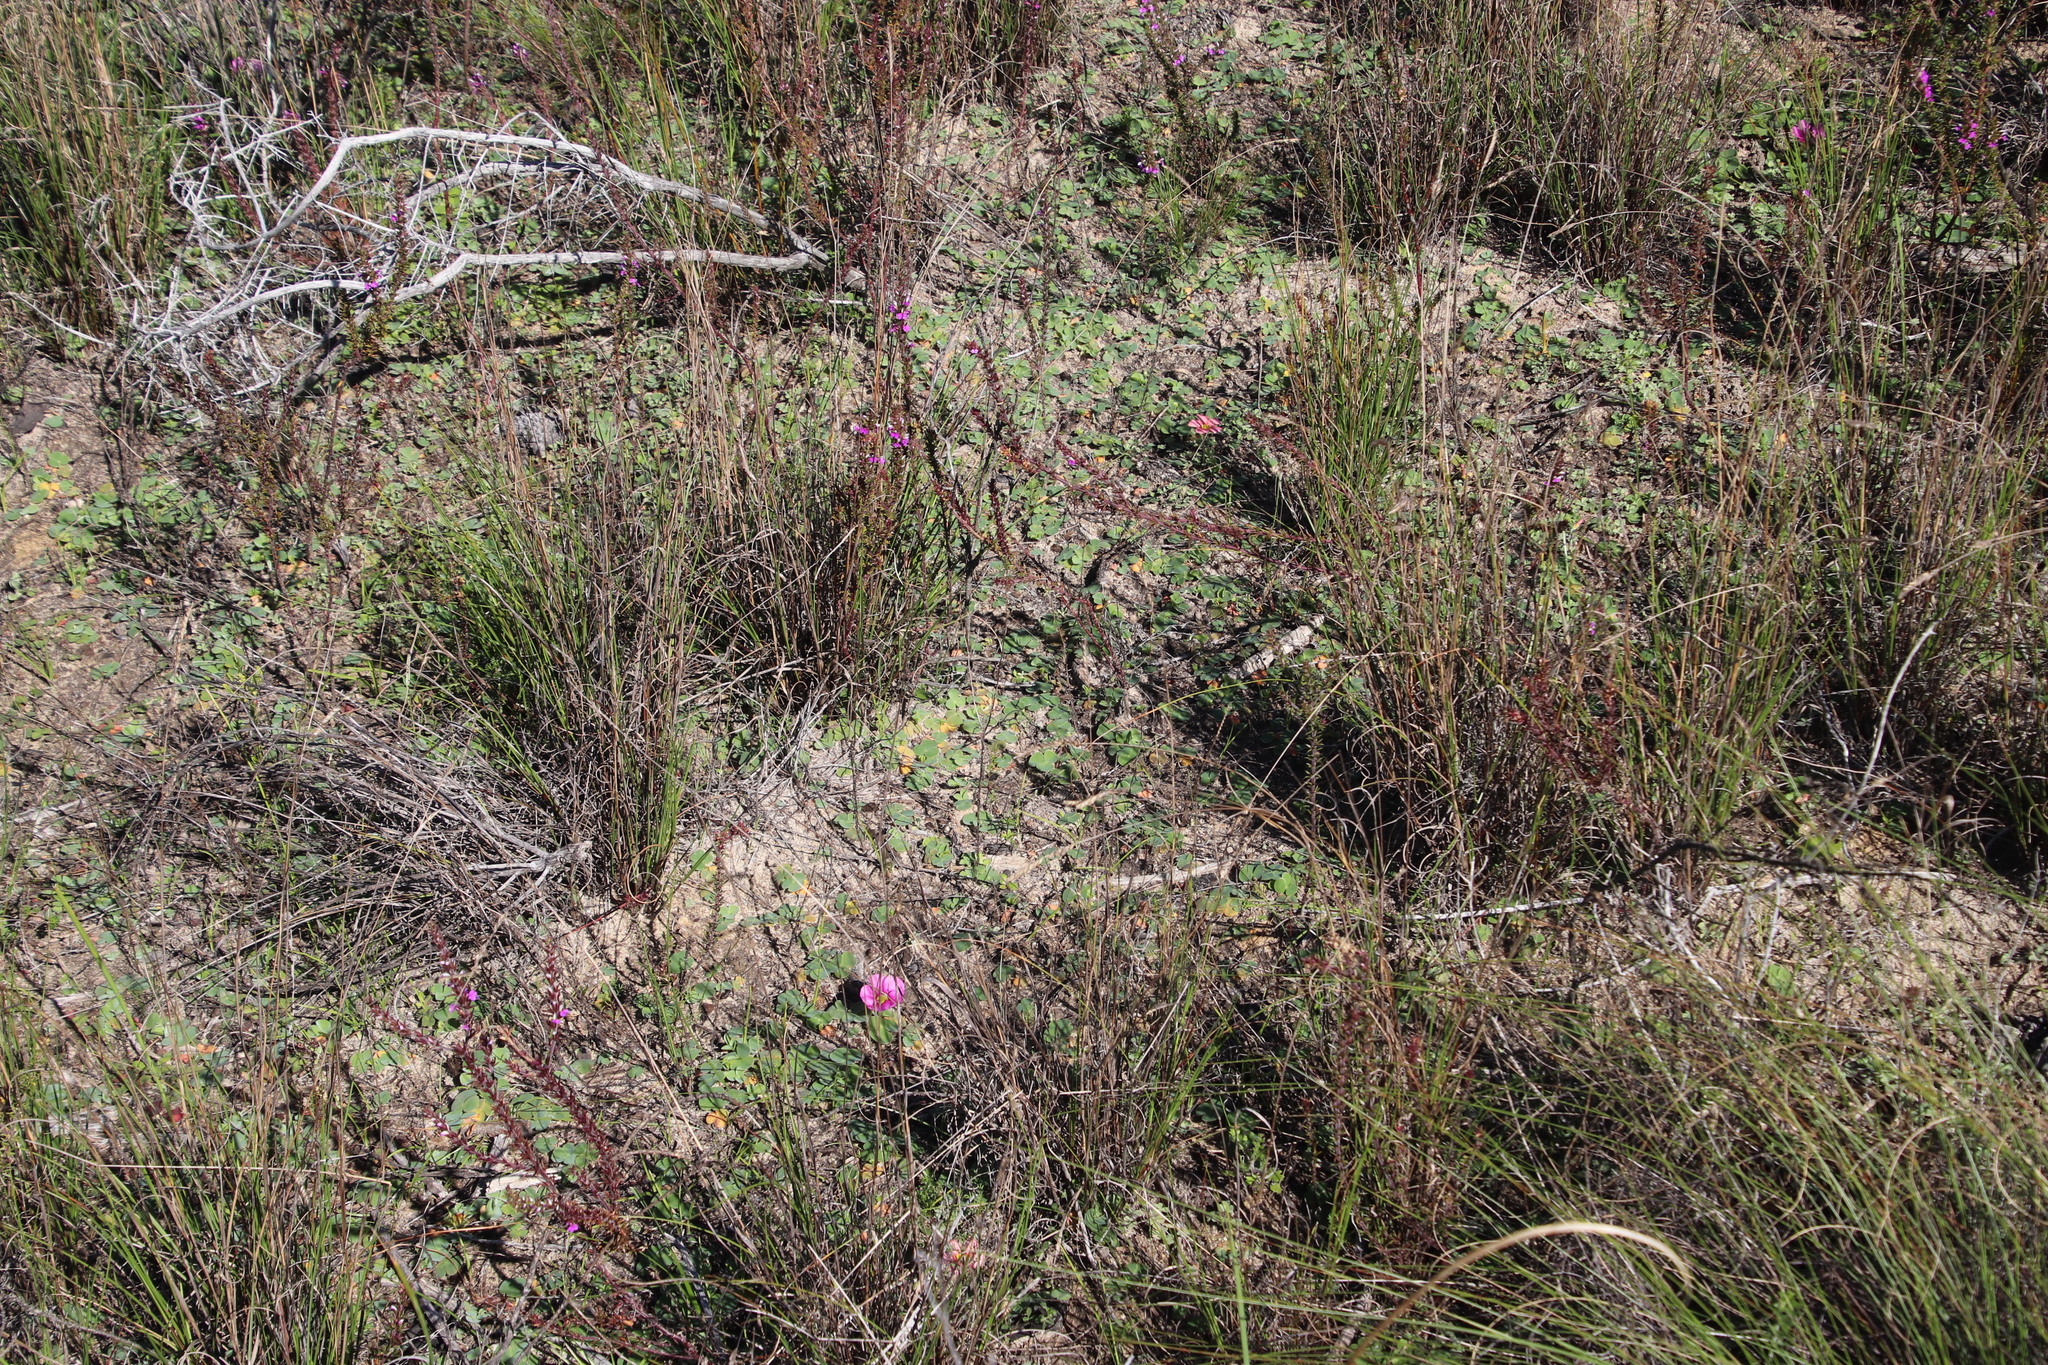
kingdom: Plantae
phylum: Tracheophyta
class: Magnoliopsida
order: Oxalidales
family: Oxalidaceae
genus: Oxalis
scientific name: Oxalis purpurea
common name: Purple woodsorrel
